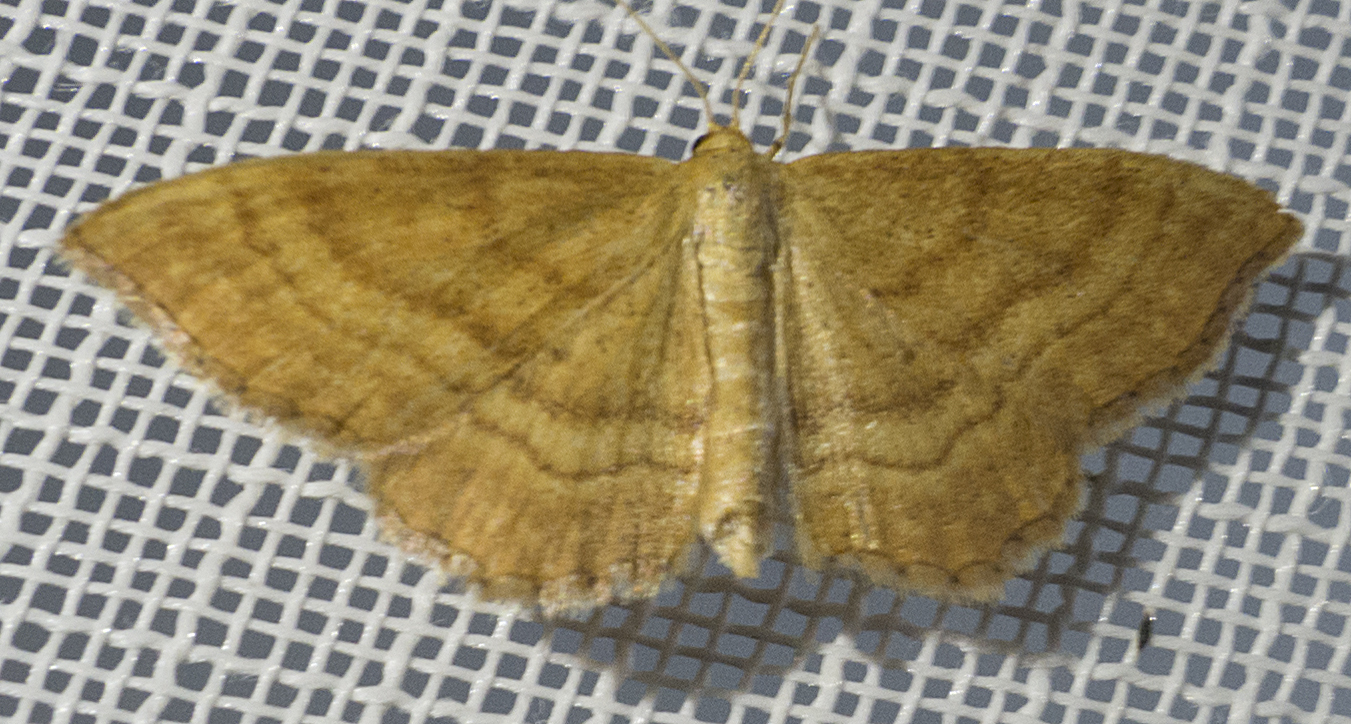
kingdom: Animalia
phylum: Arthropoda
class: Insecta
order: Lepidoptera
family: Geometridae
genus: Idaea
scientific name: Idaea ochrata
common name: Bright wave
